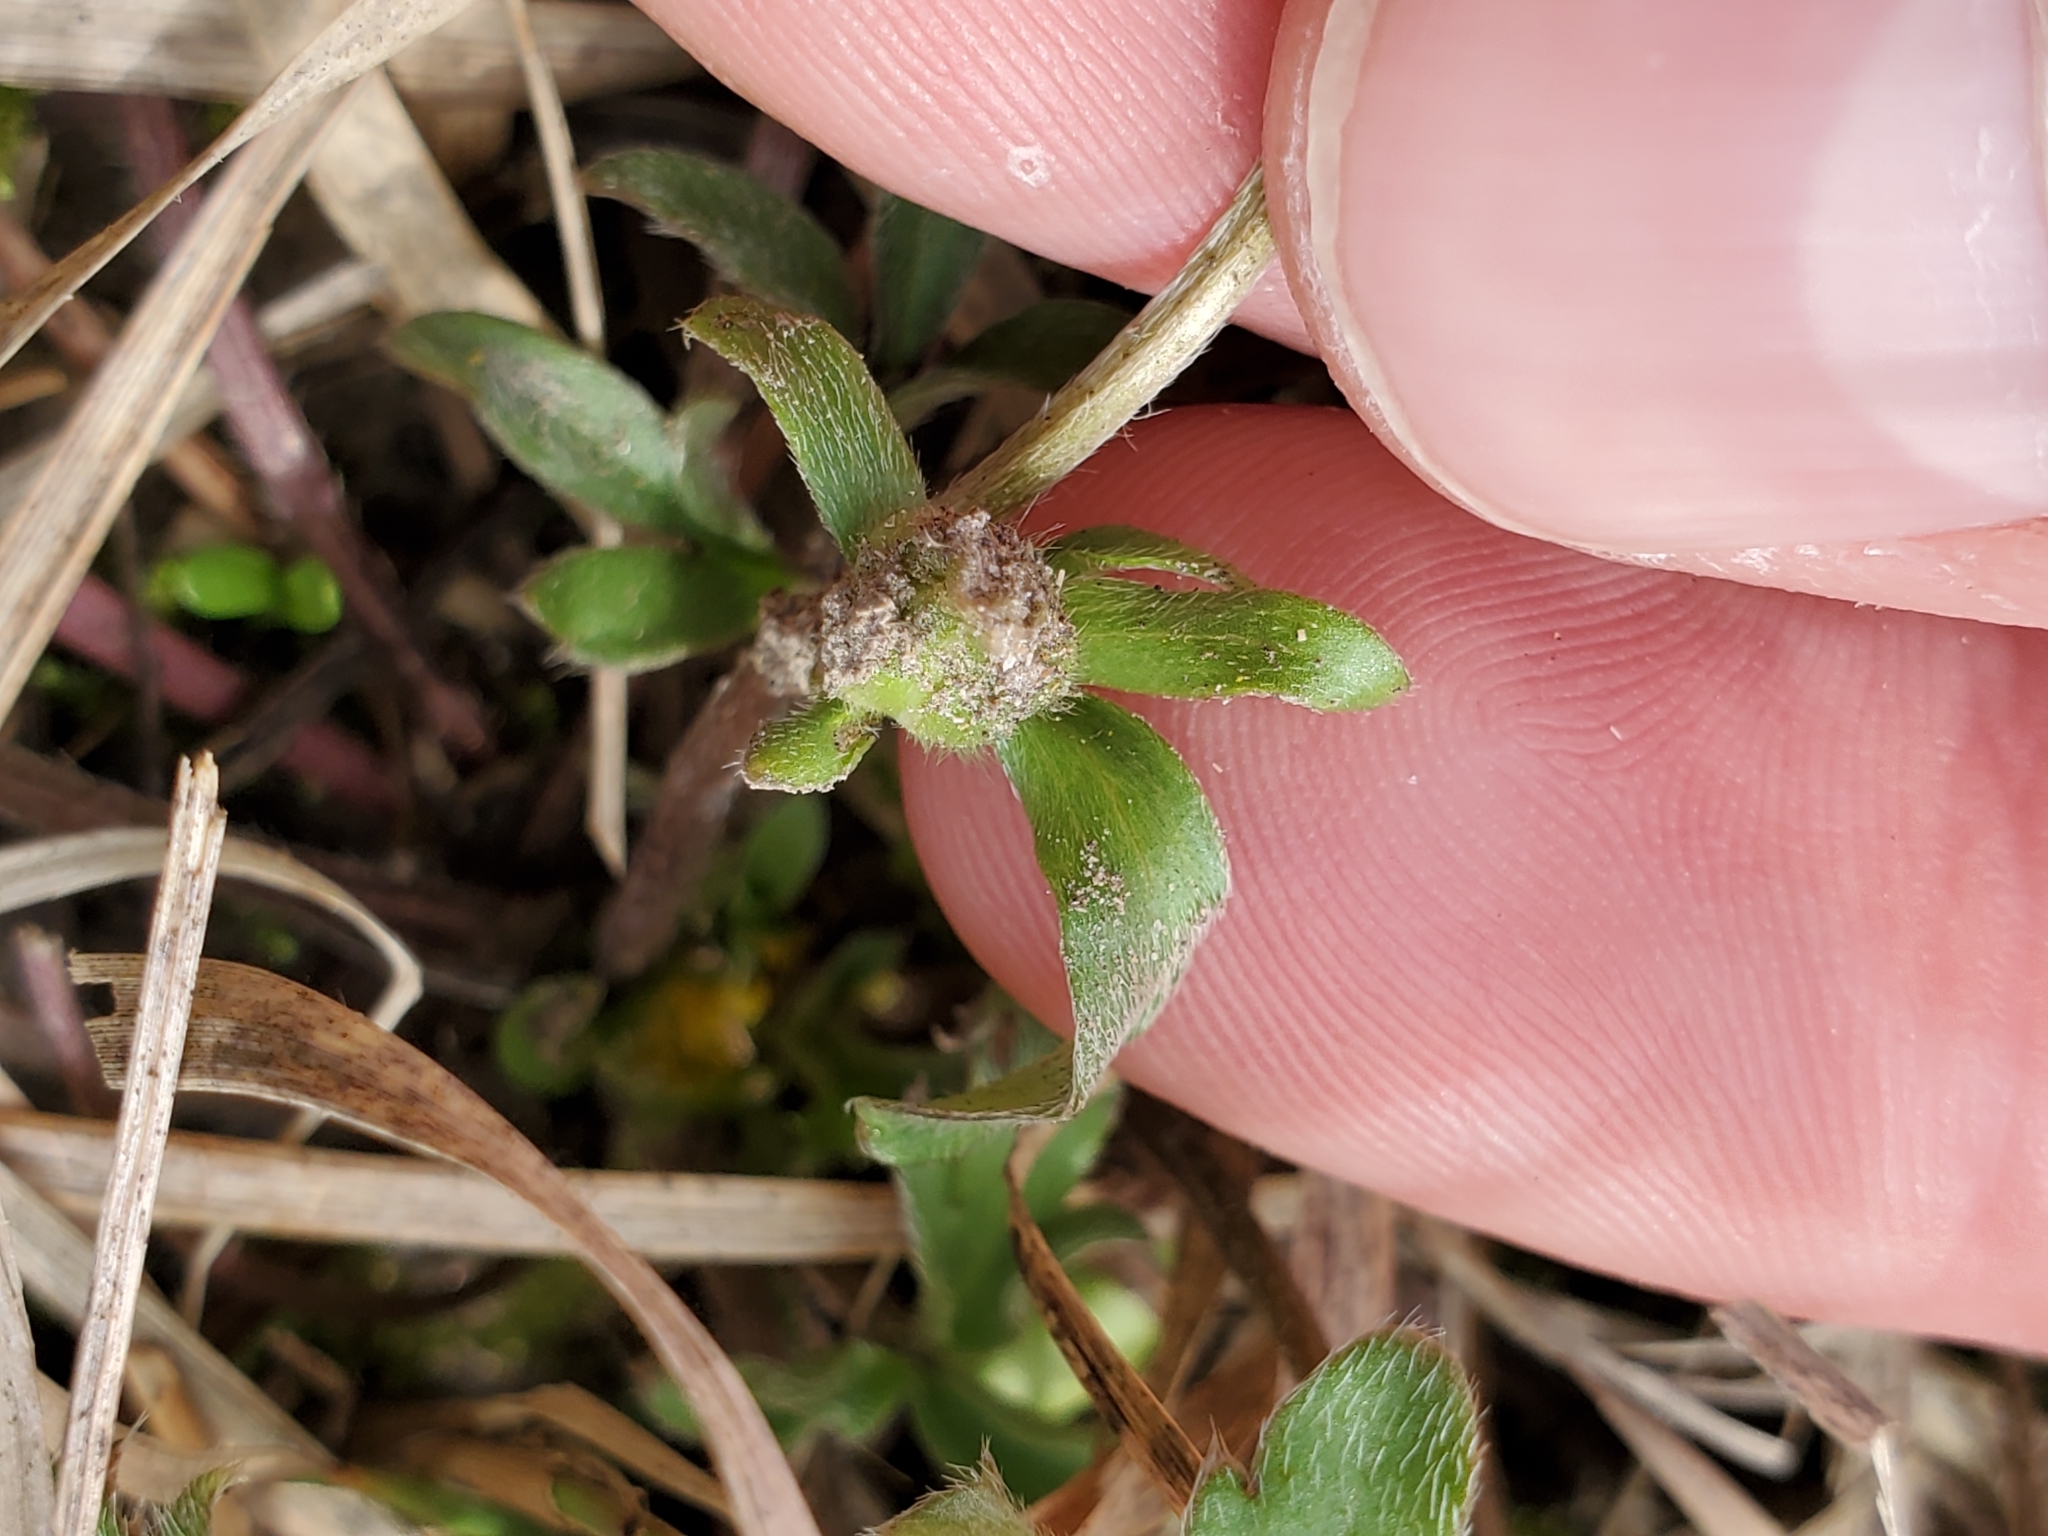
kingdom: Plantae
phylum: Tracheophyta
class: Magnoliopsida
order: Ranunculales
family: Ranunculaceae
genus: Ranunculus
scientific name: Ranunculus fascicularis
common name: Early buttercup
